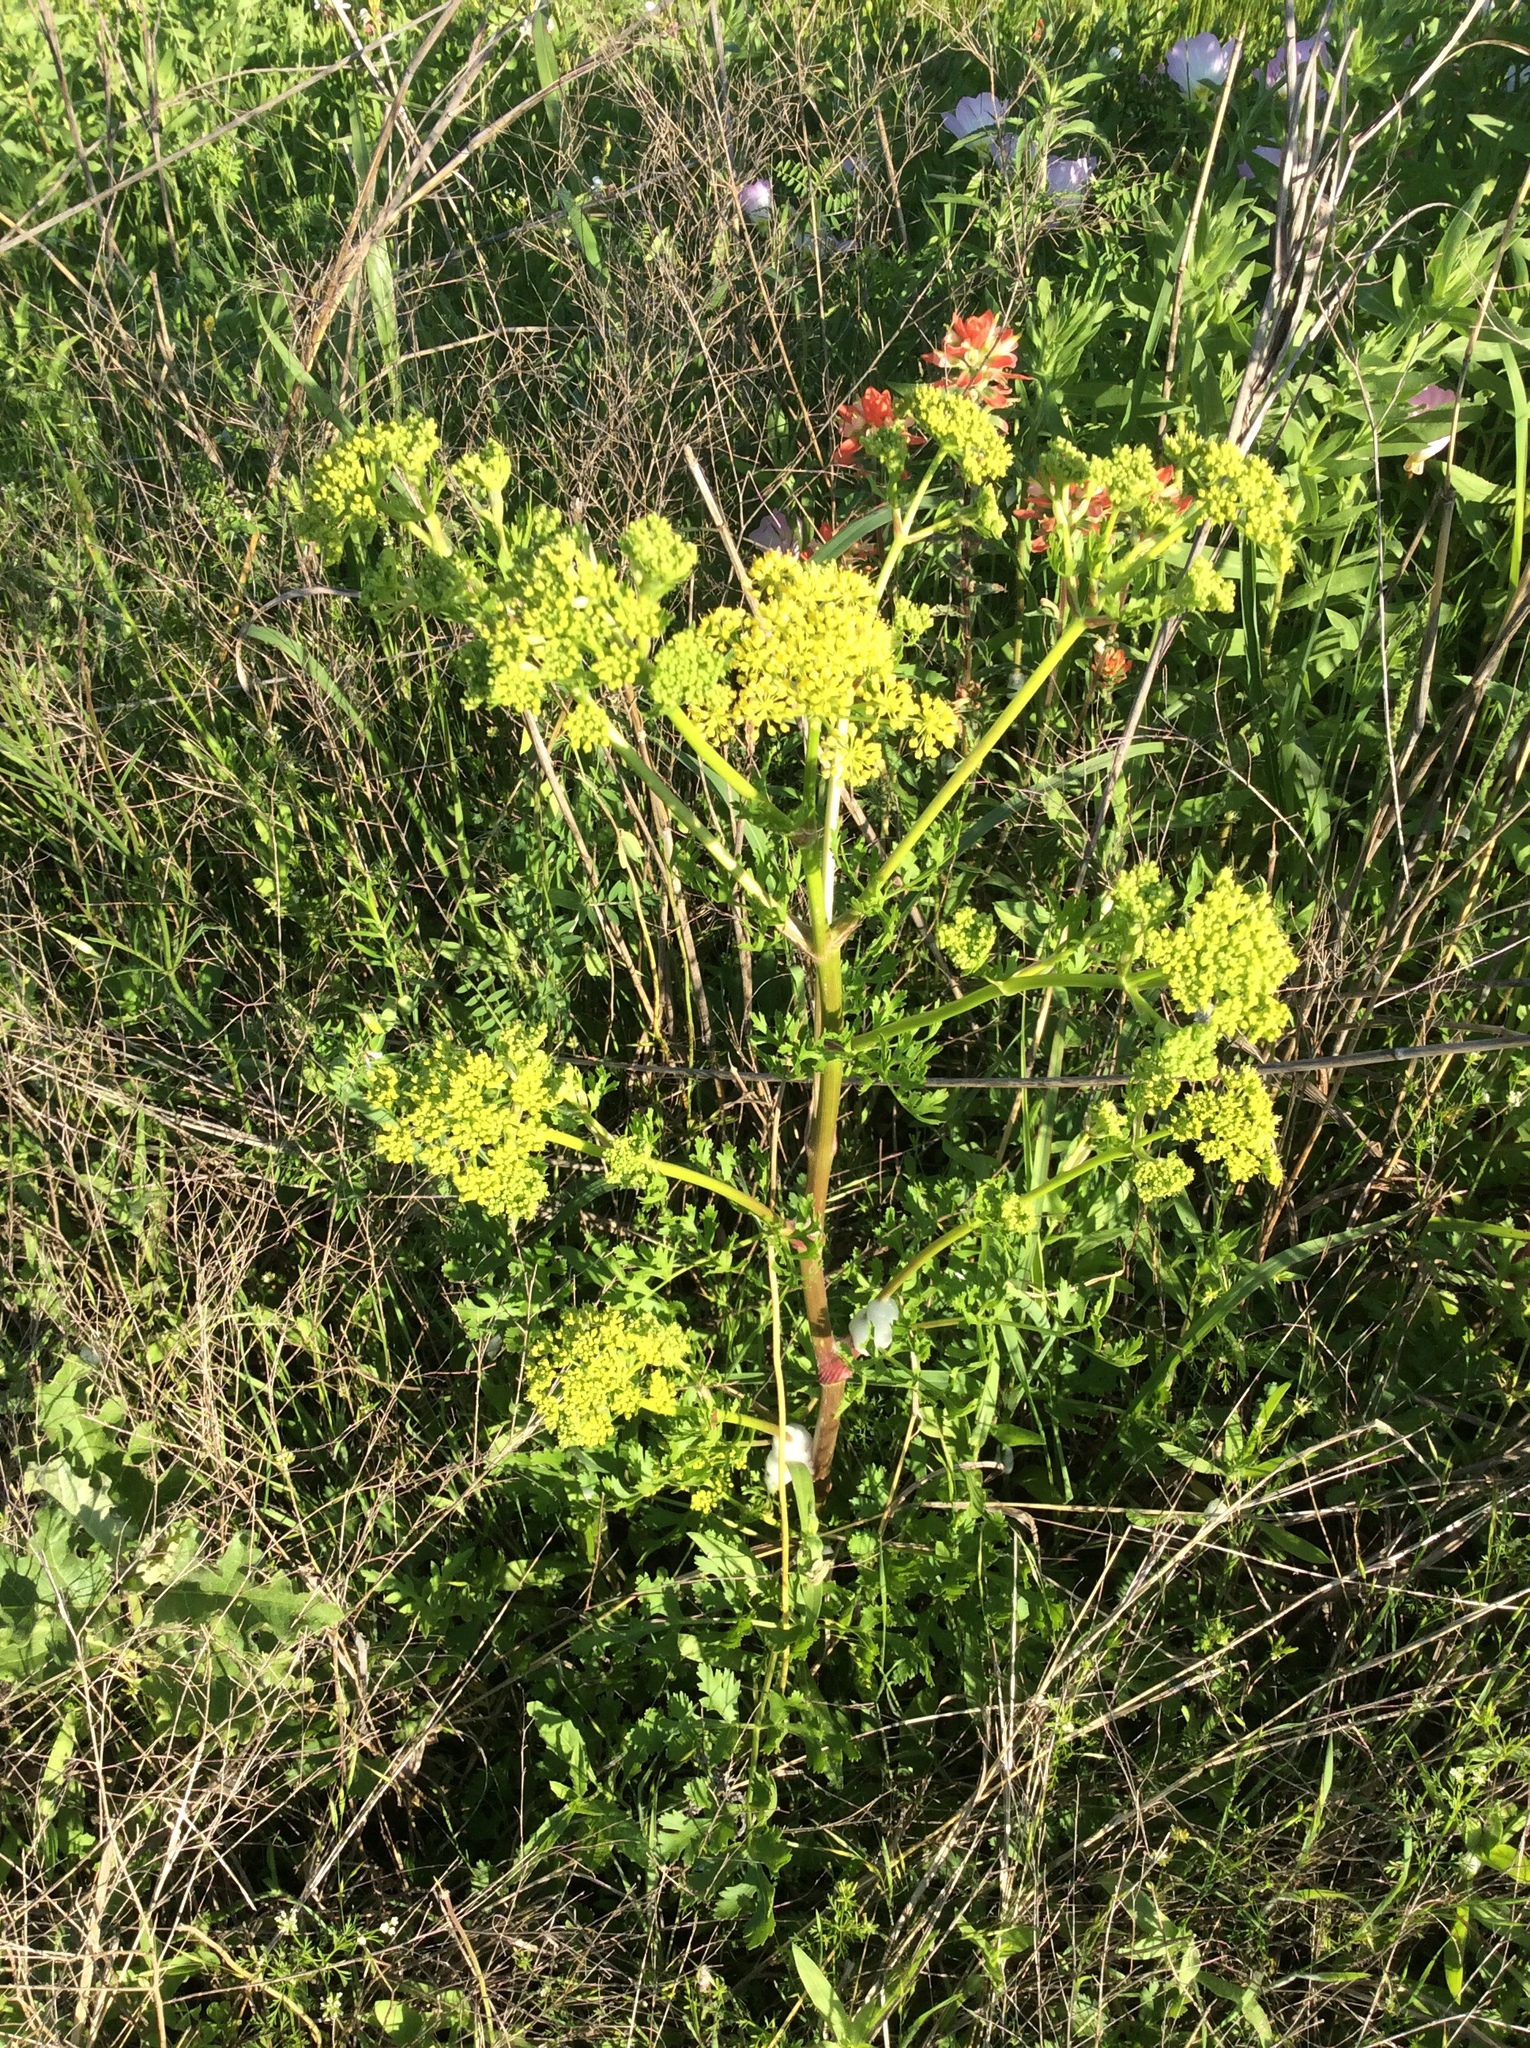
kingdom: Plantae
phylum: Tracheophyta
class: Magnoliopsida
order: Apiales
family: Apiaceae
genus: Polytaenia
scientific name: Polytaenia texana
